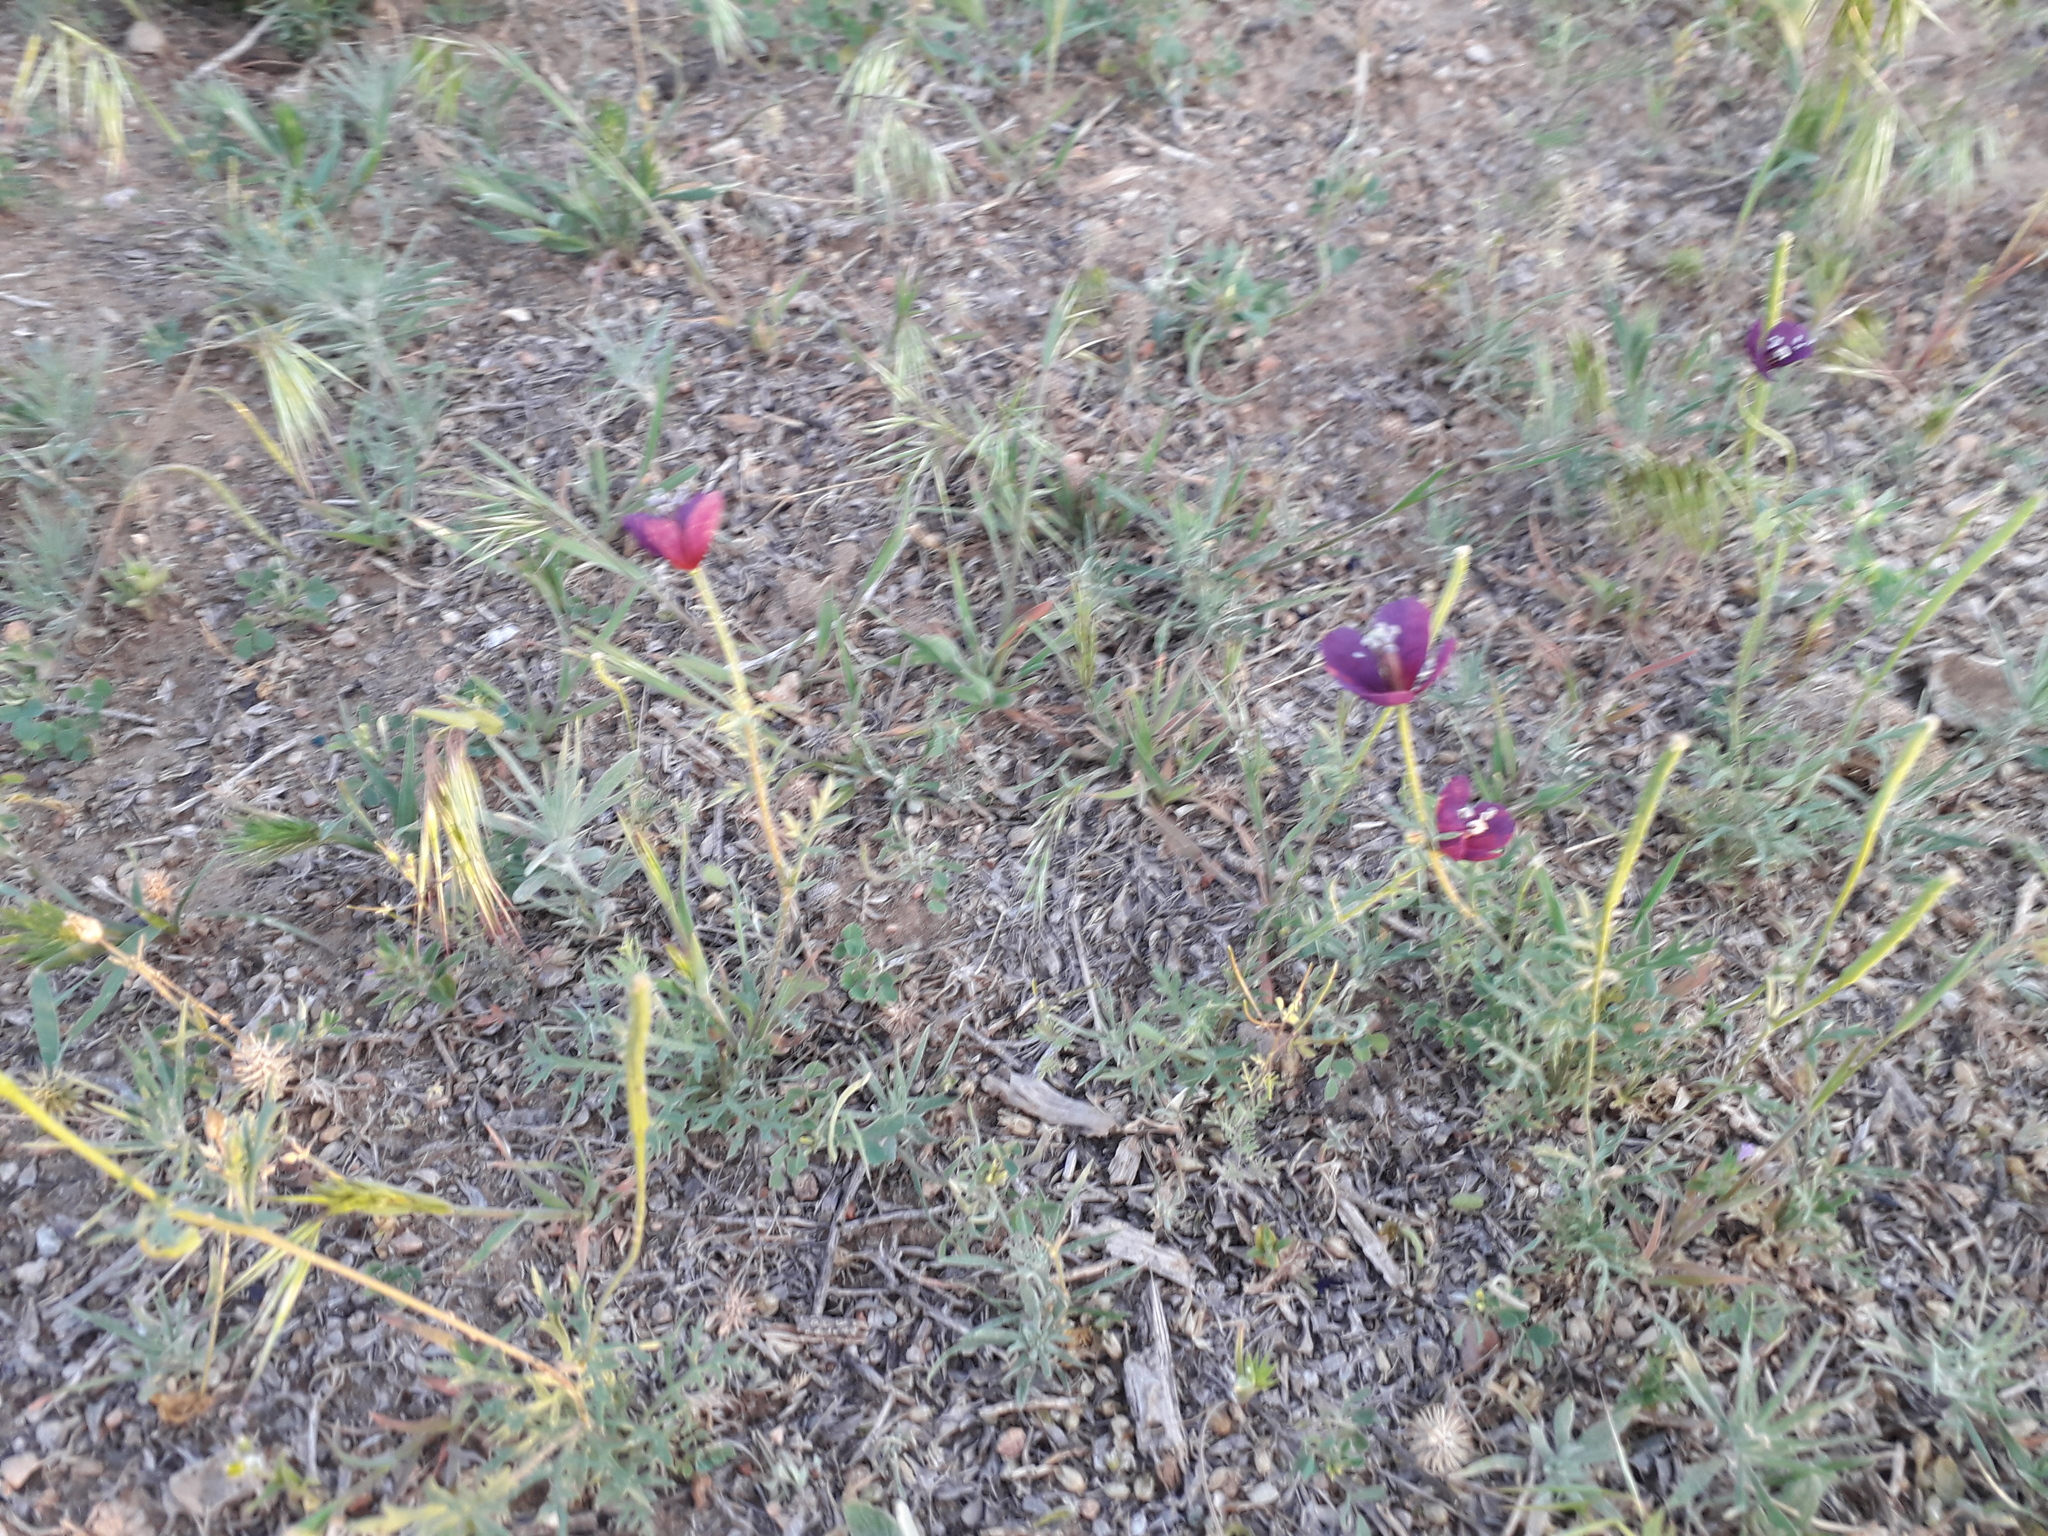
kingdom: Plantae
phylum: Tracheophyta
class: Magnoliopsida
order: Ranunculales
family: Papaveraceae
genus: Roemeria
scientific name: Roemeria hybrida
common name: Violet horned-poppy
